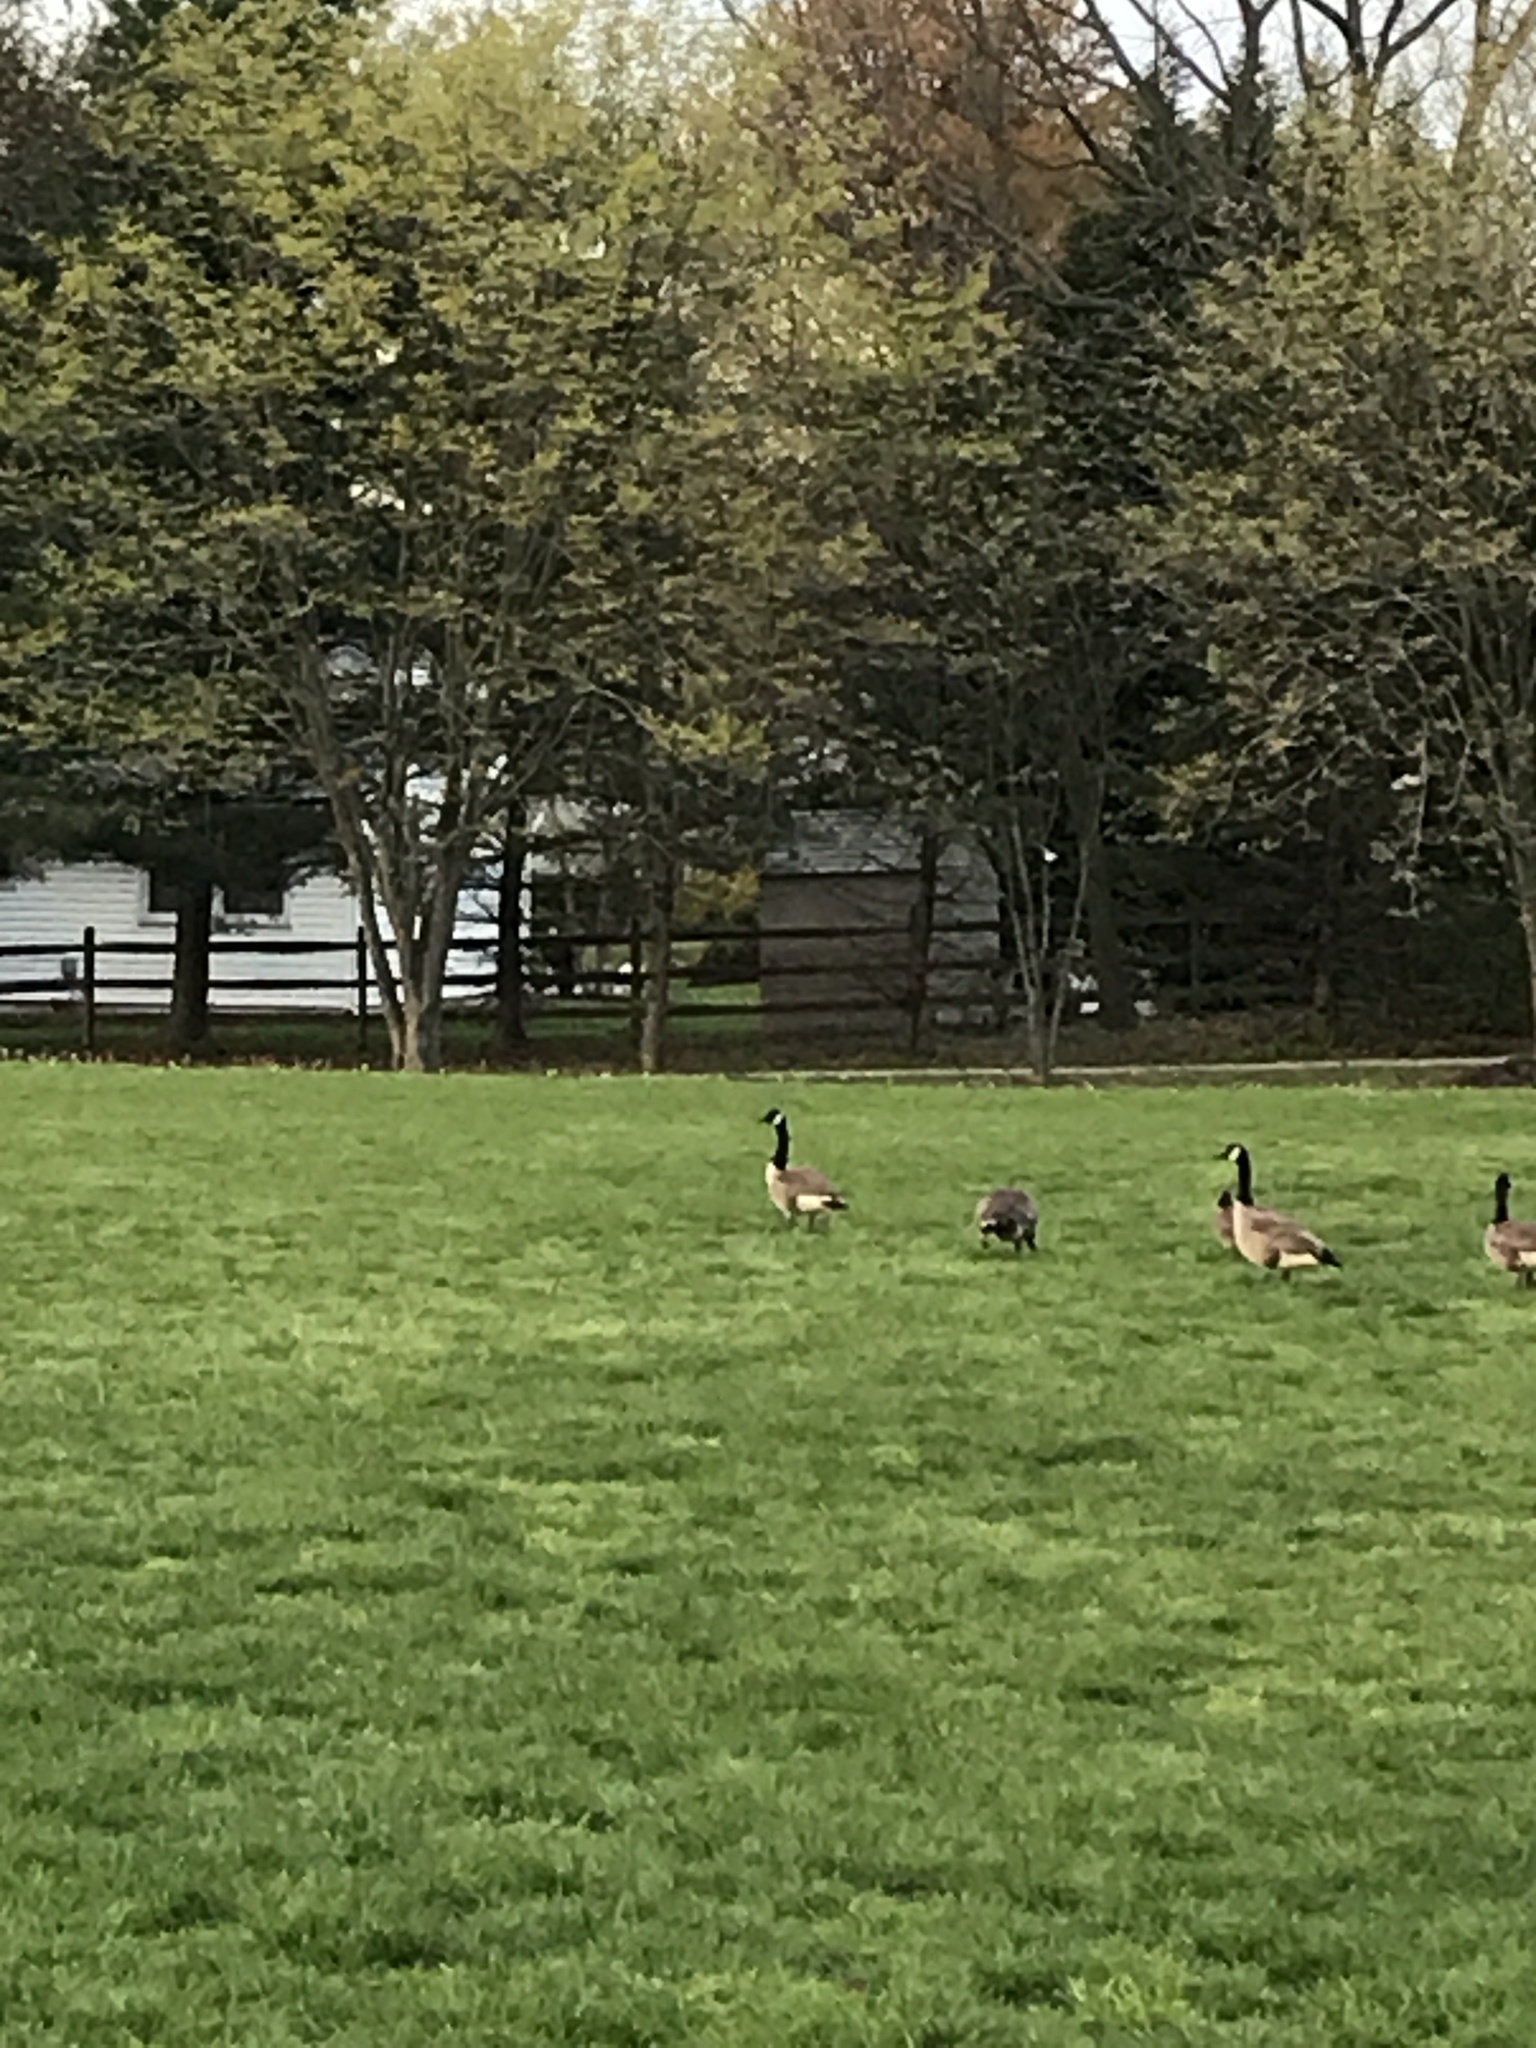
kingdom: Animalia
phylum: Chordata
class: Aves
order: Anseriformes
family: Anatidae
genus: Branta
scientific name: Branta canadensis
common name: Canada goose
